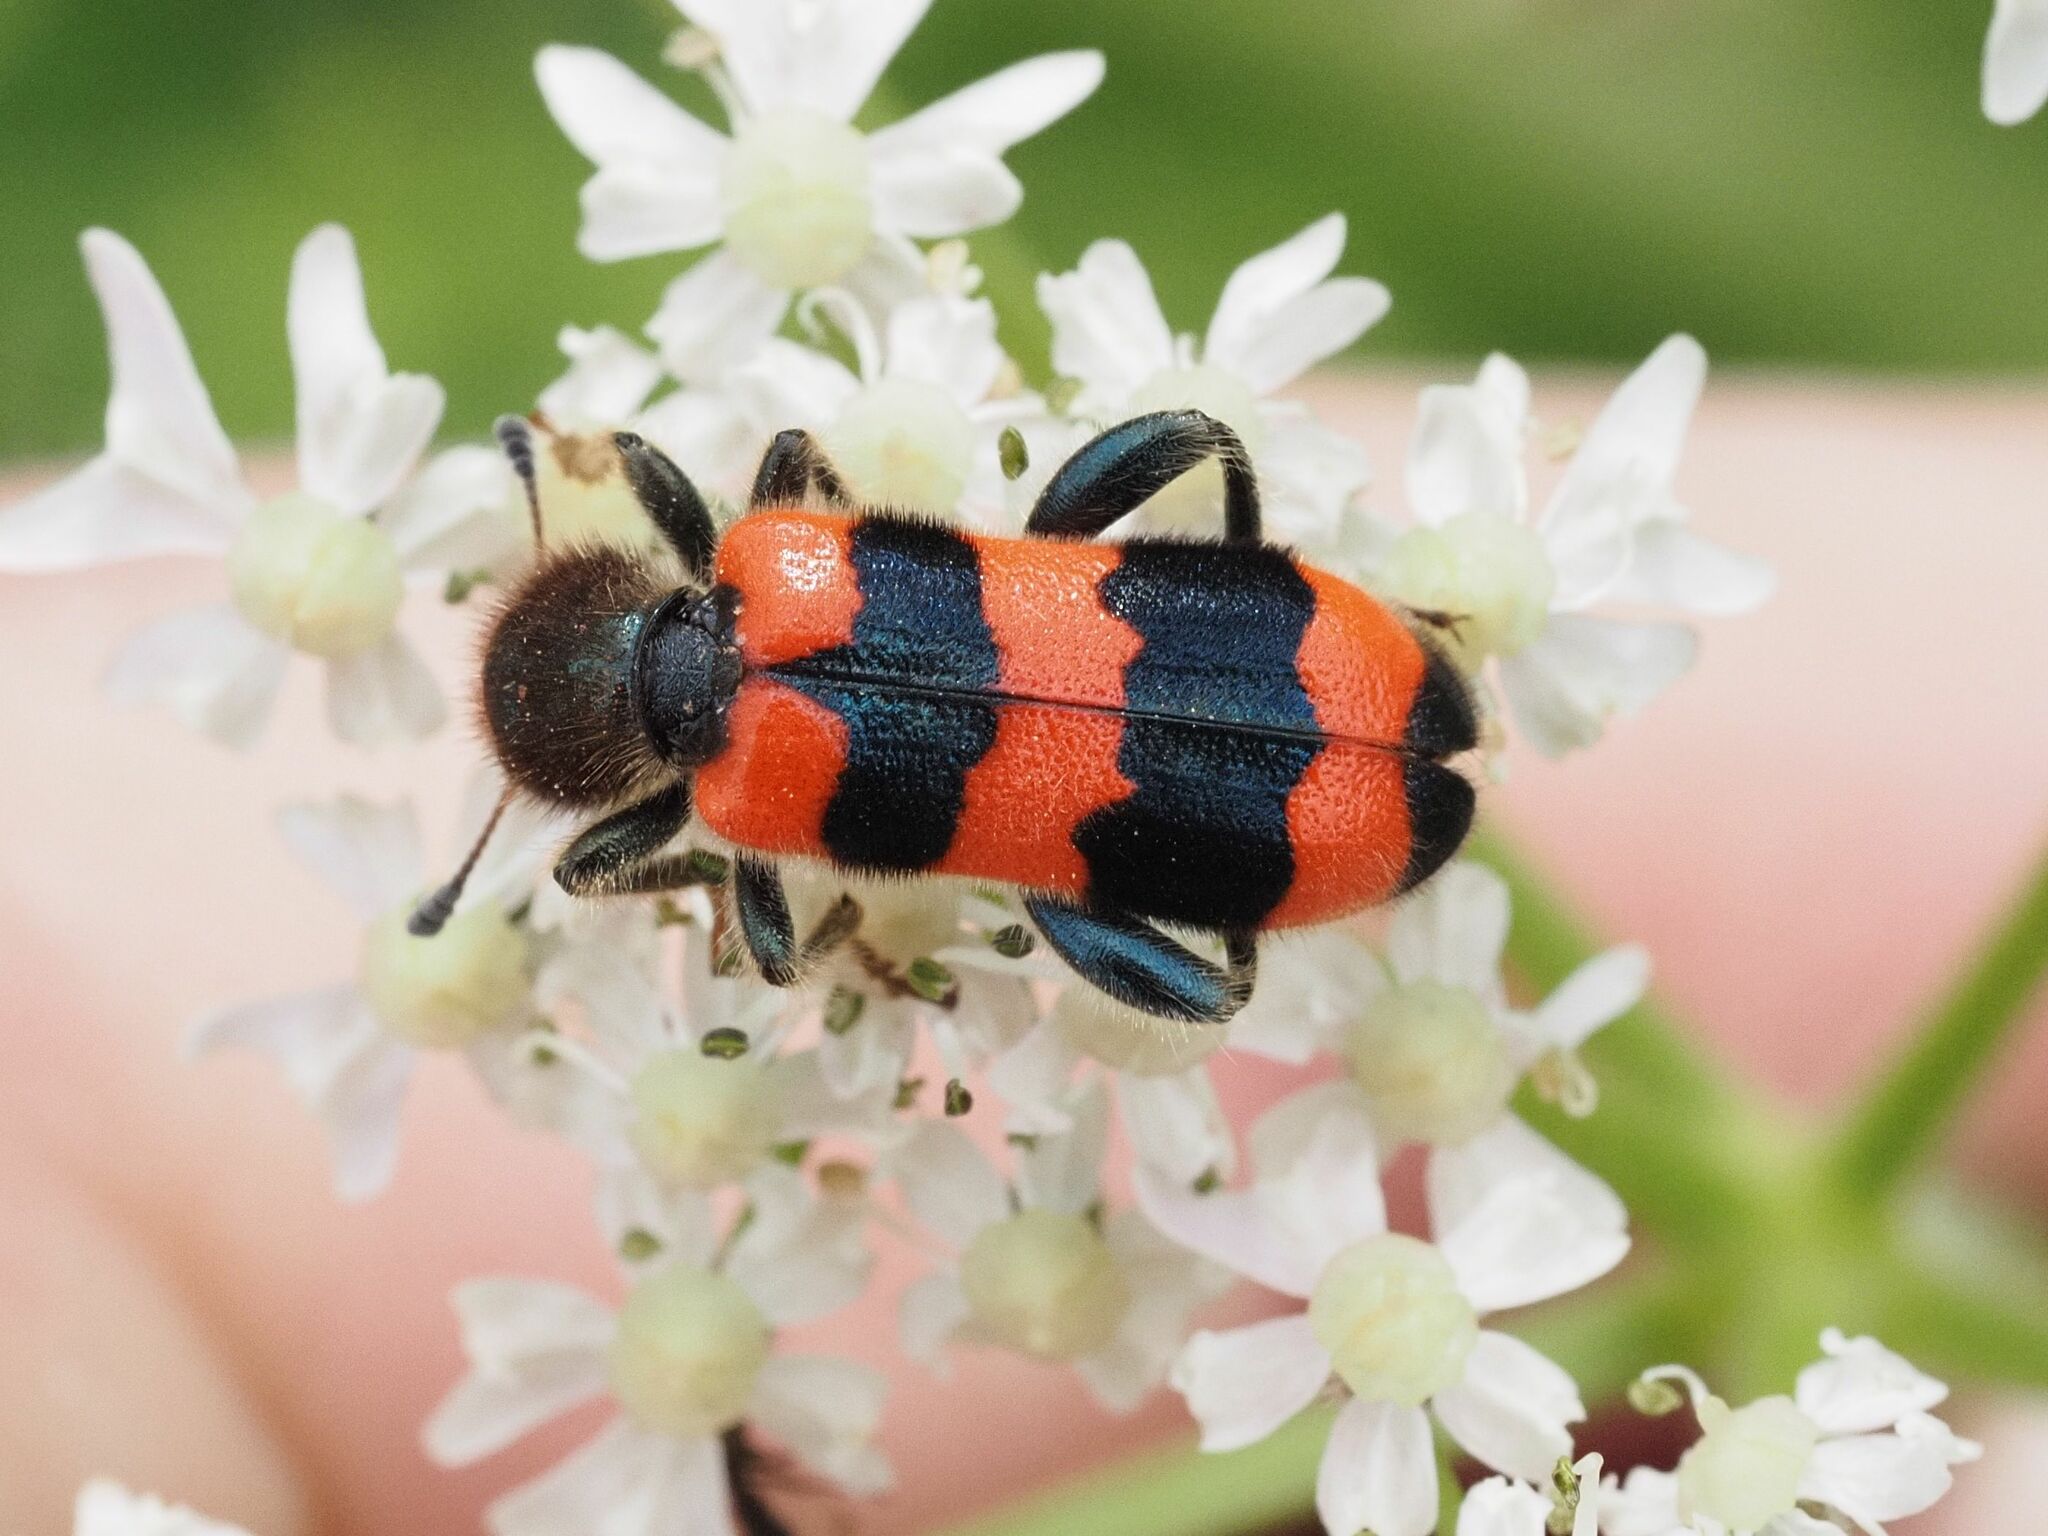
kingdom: Animalia
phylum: Arthropoda
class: Insecta
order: Coleoptera
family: Cleridae
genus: Trichodes
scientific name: Trichodes apiarius
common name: Bee-eating beetle
